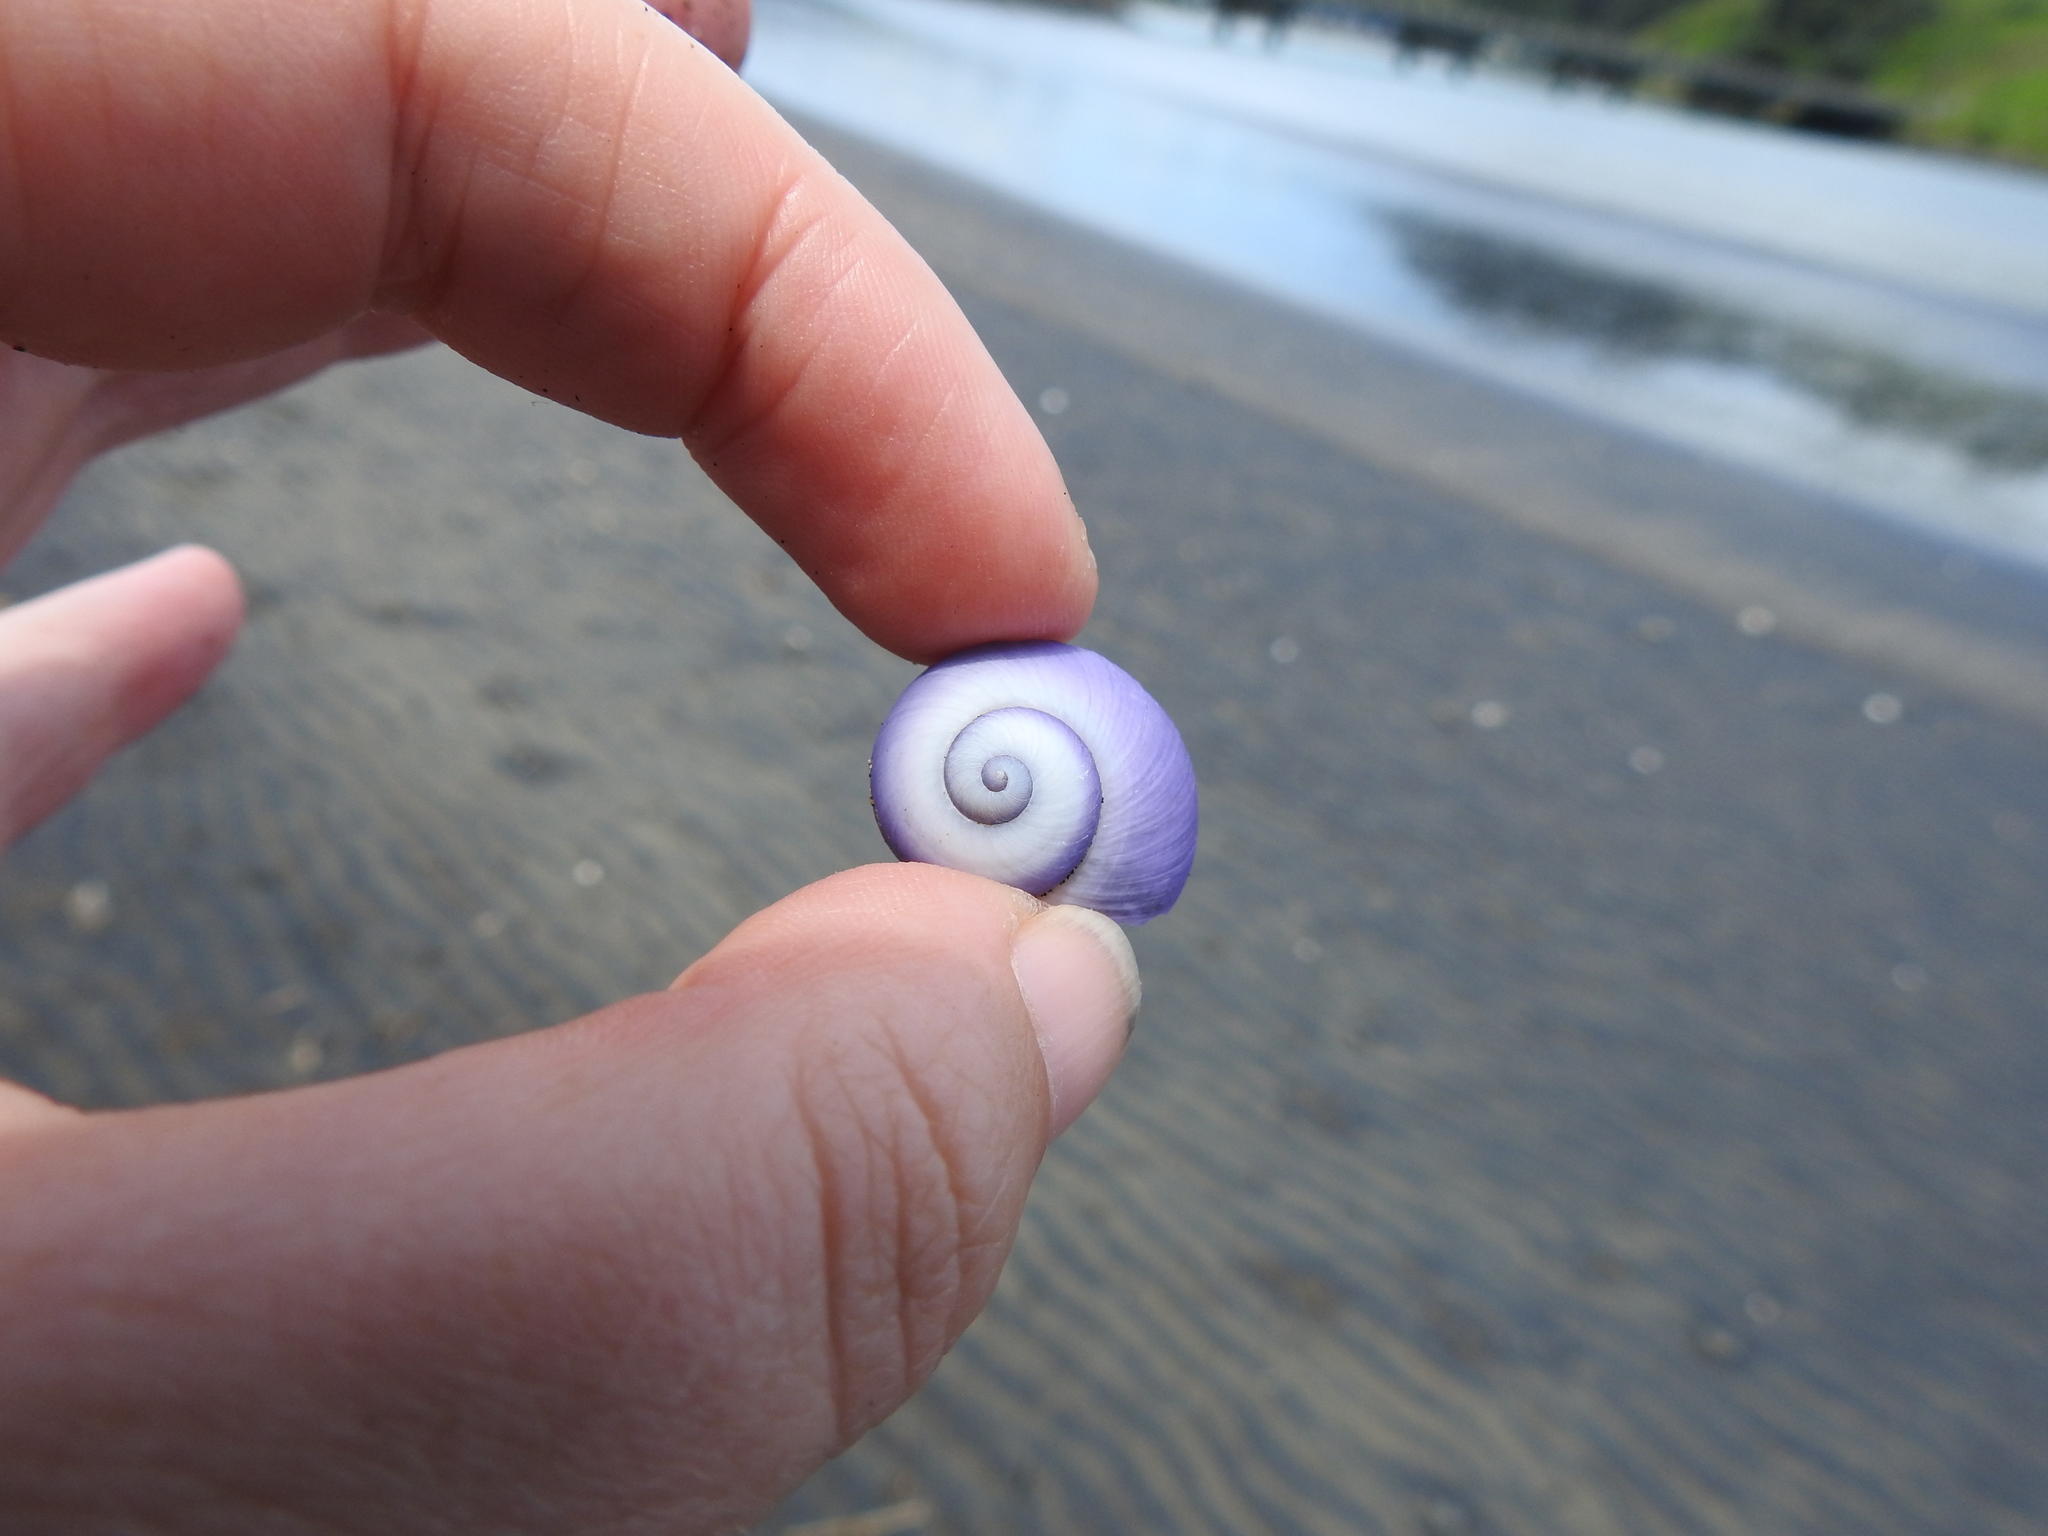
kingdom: Animalia
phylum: Mollusca
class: Gastropoda
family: Epitoniidae
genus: Janthina
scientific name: Janthina janthina
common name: Common janthina
